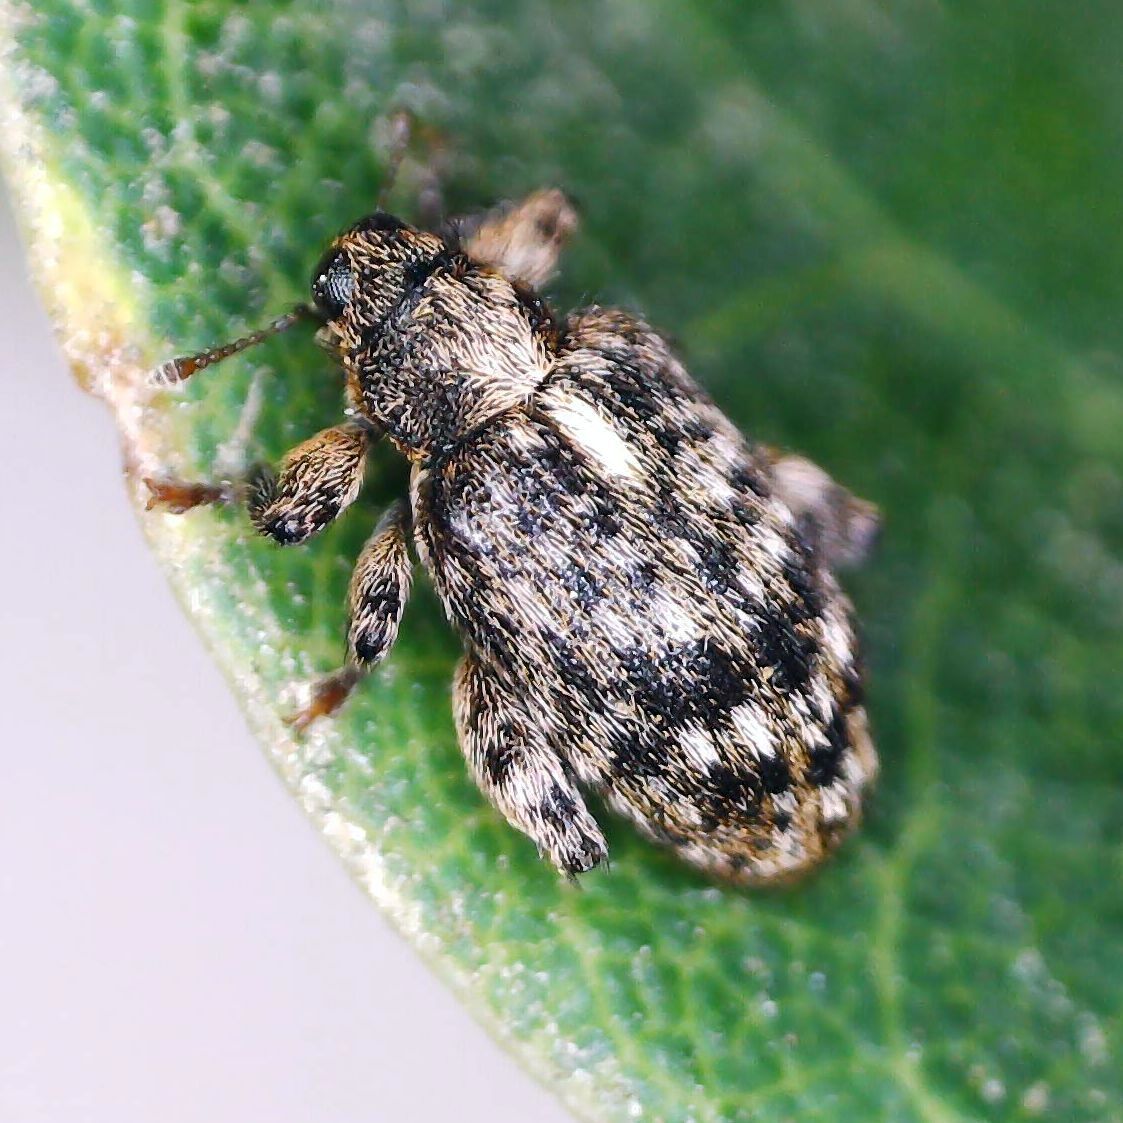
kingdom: Animalia
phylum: Arthropoda
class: Insecta
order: Coleoptera
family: Curculionidae
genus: Orchestes
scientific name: Orchestes pilosus
